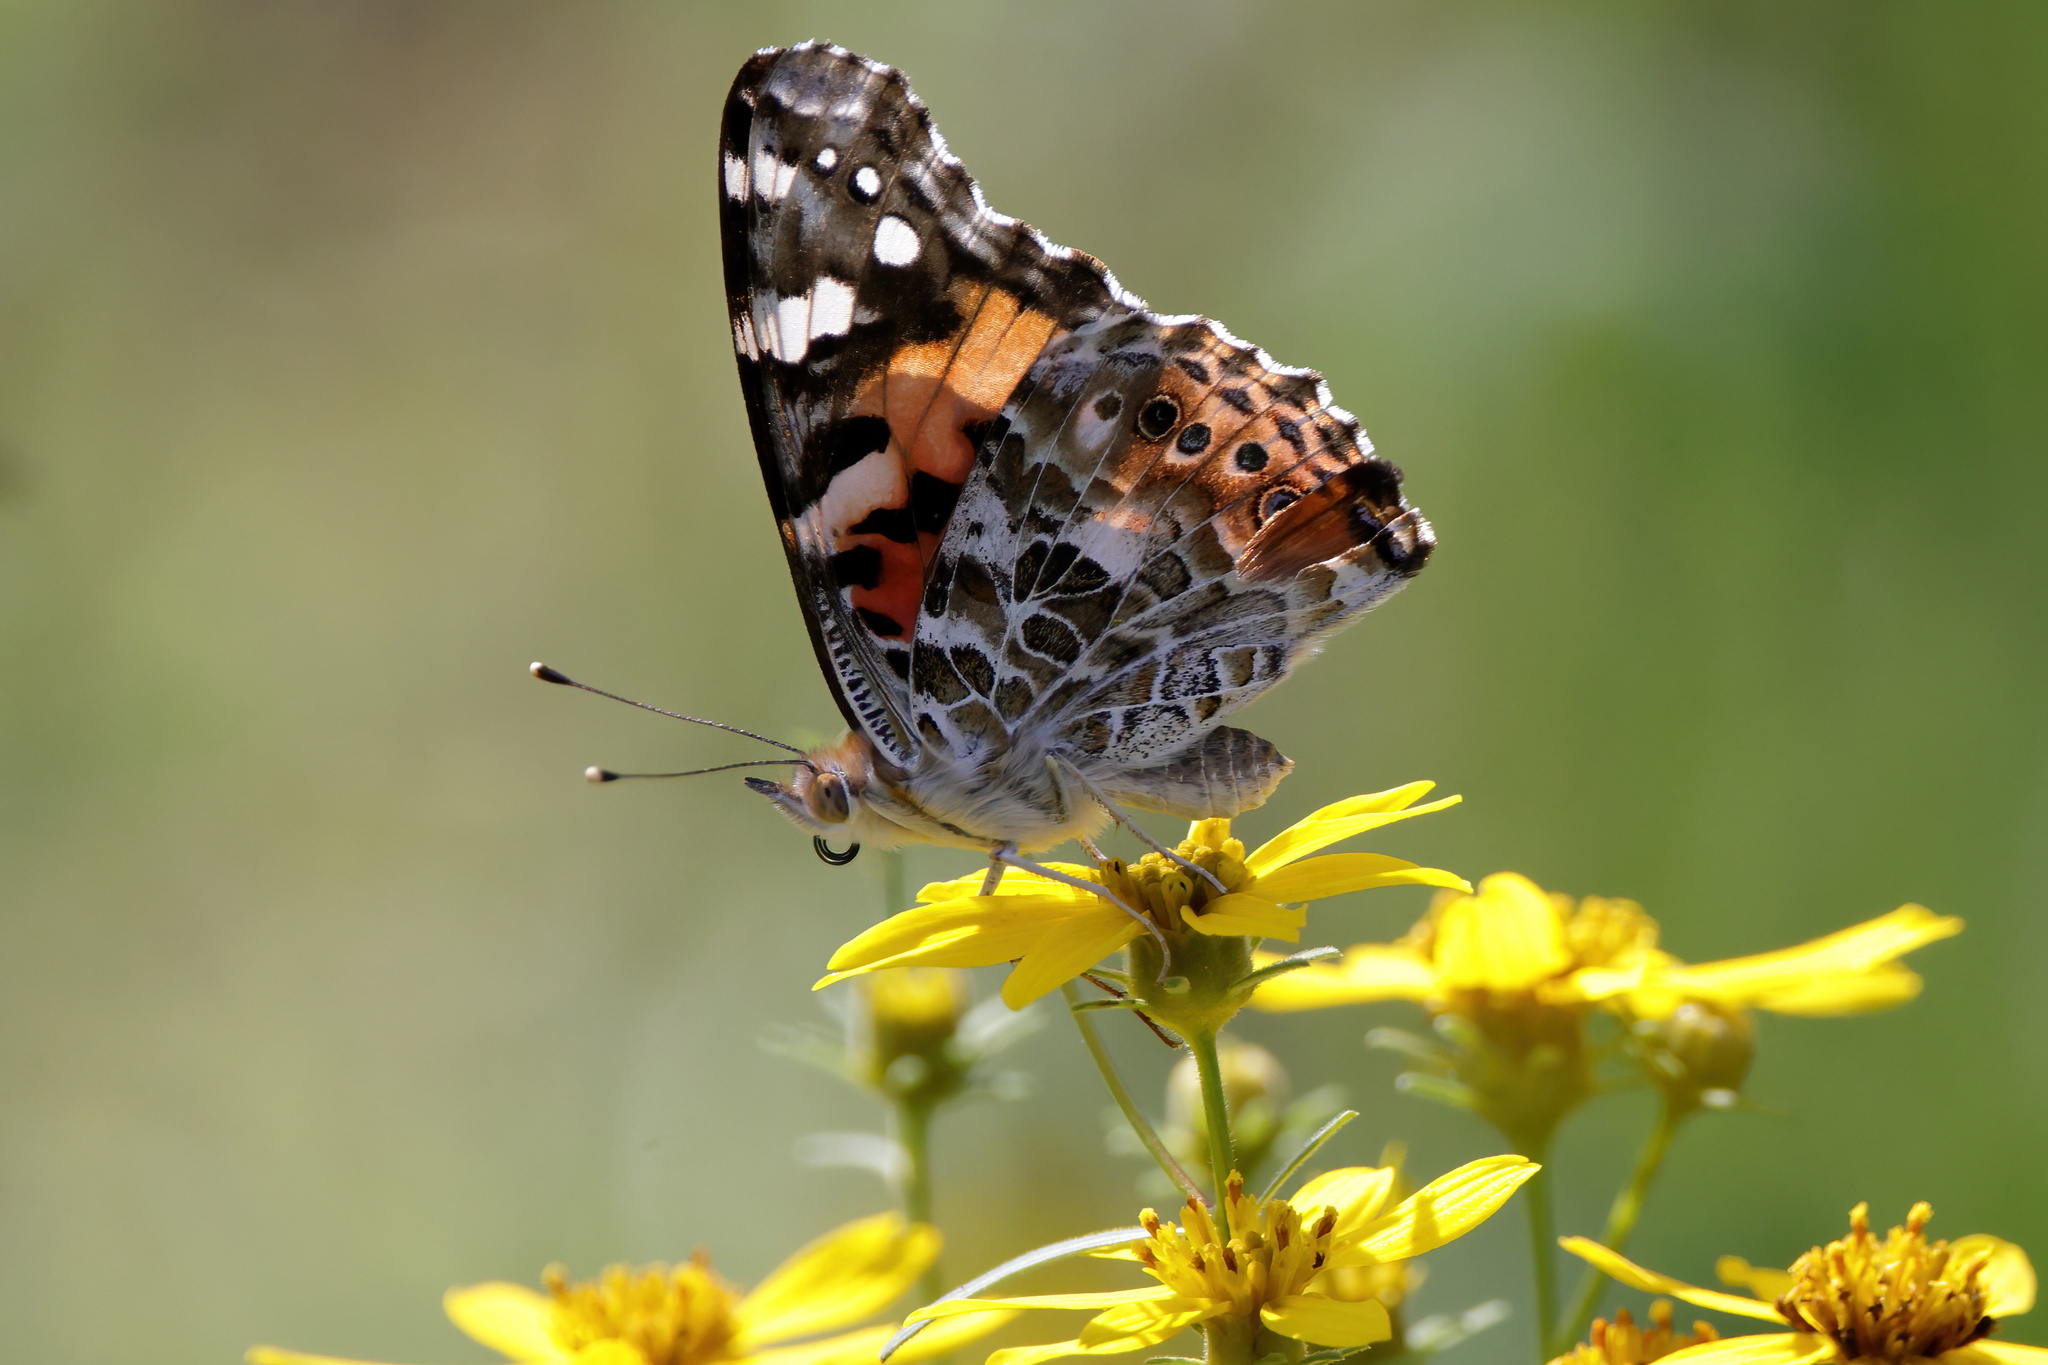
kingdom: Animalia
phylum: Arthropoda
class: Insecta
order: Lepidoptera
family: Nymphalidae
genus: Vanessa
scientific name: Vanessa cardui
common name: Painted lady
